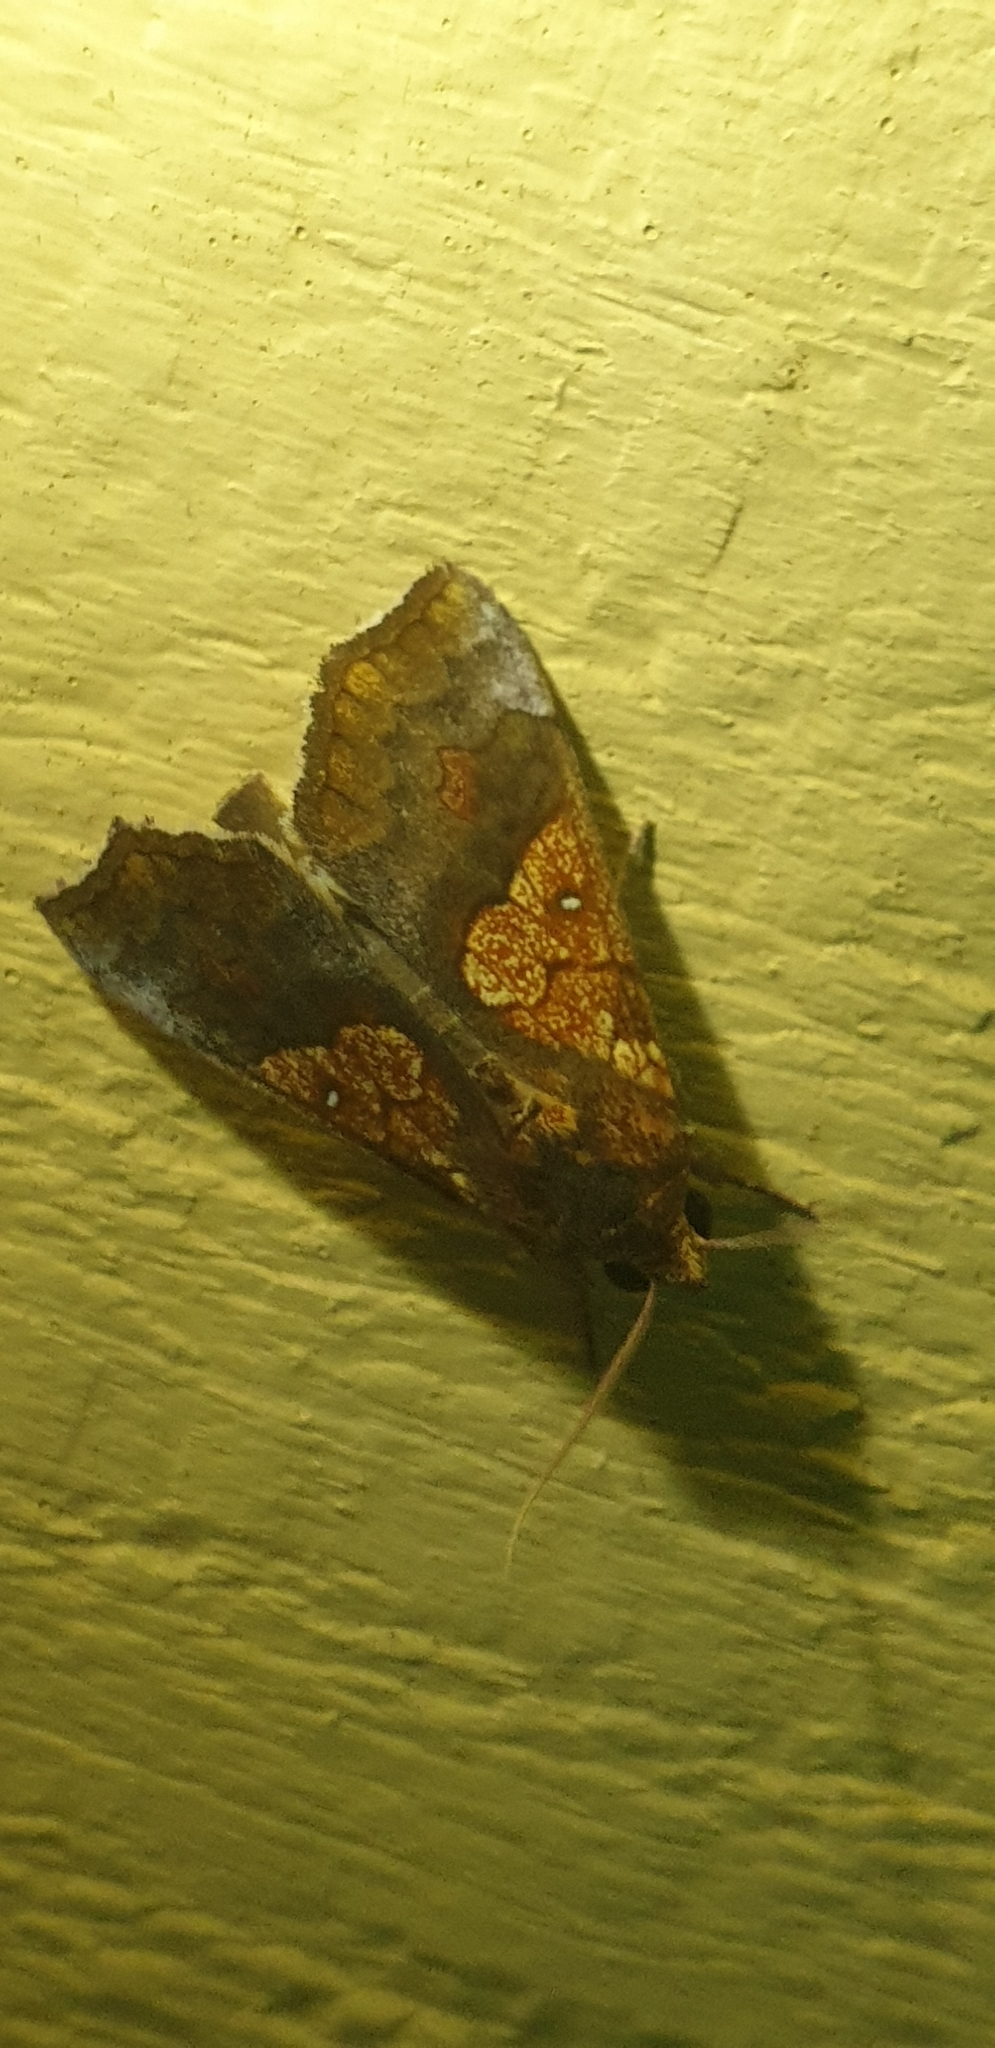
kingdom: Animalia
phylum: Arthropoda
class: Insecta
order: Lepidoptera
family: Erebidae
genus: Anomis
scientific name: Anomis flava
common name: Moth
